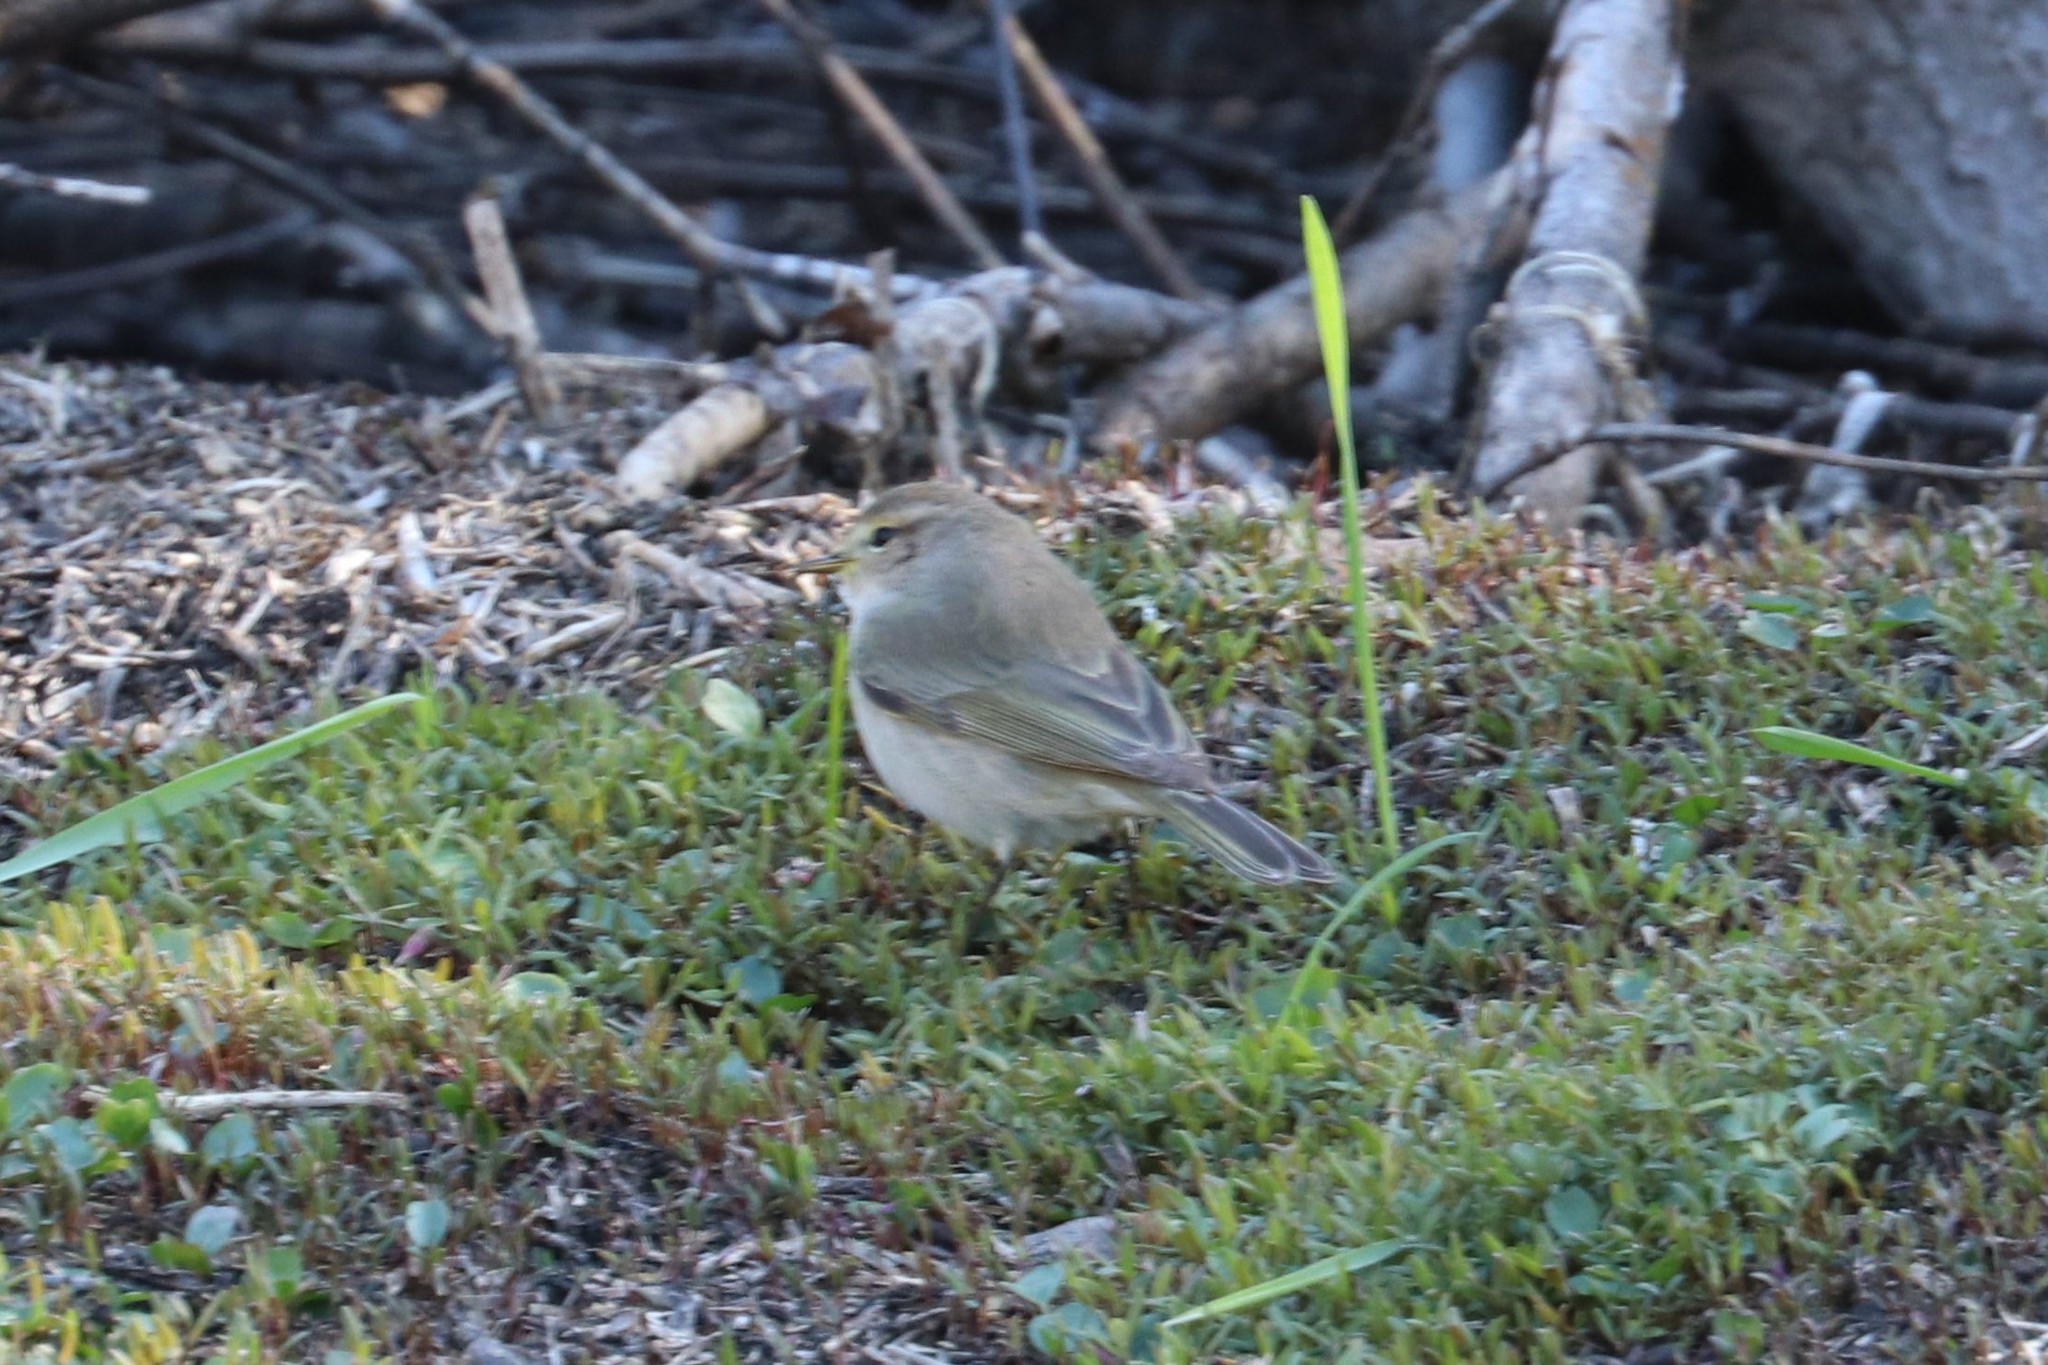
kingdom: Animalia
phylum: Chordata
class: Aves
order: Passeriformes
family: Phylloscopidae
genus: Phylloscopus
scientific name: Phylloscopus collybita
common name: Common chiffchaff
